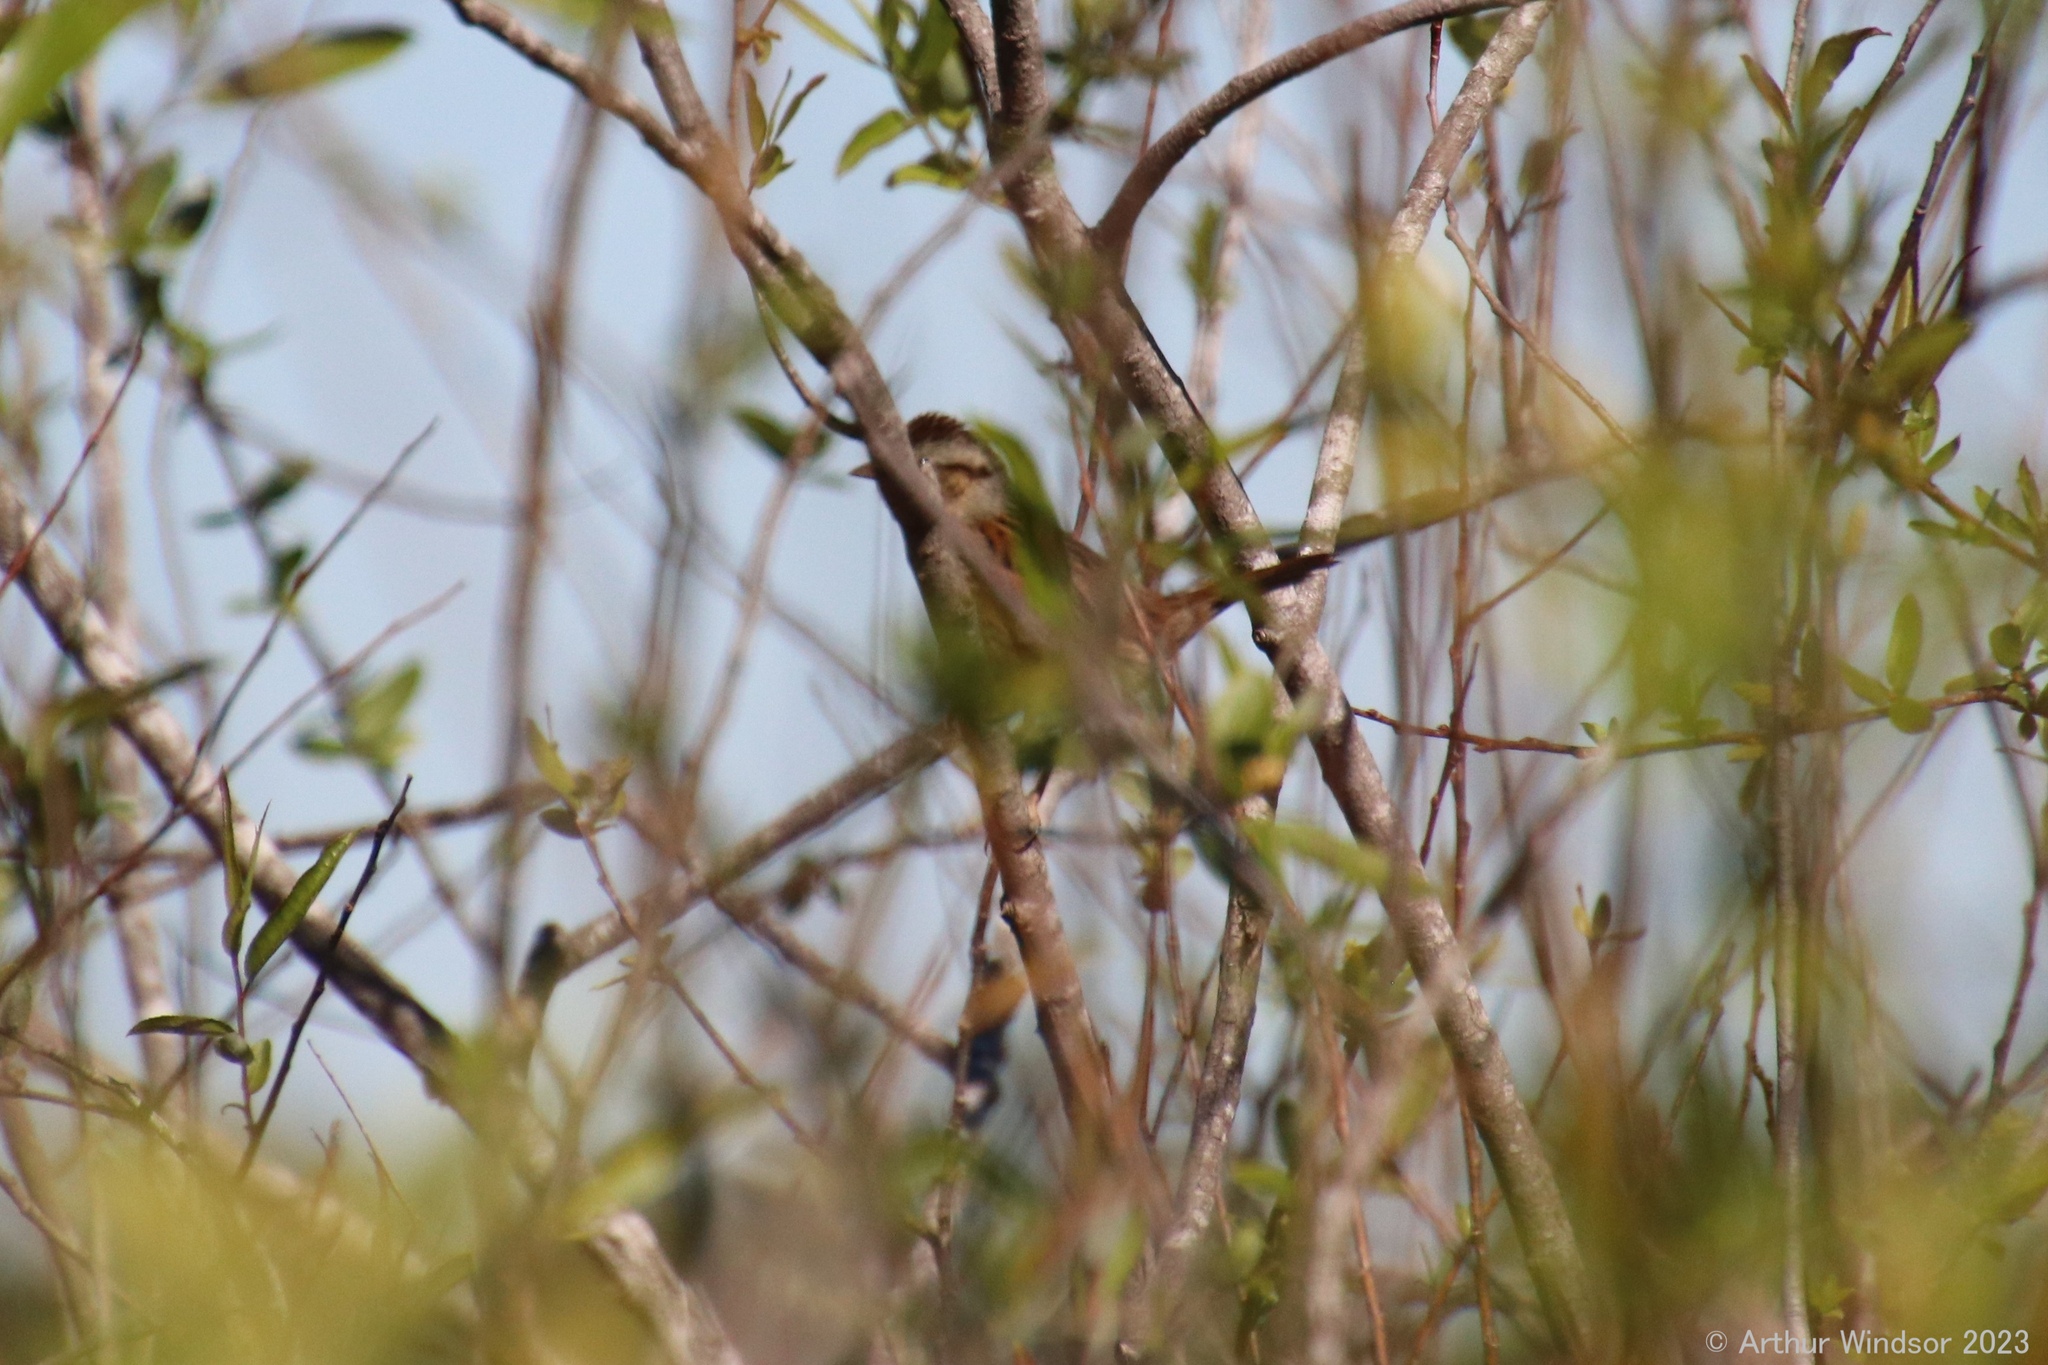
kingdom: Animalia
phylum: Chordata
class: Aves
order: Passeriformes
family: Passerellidae
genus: Melospiza
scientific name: Melospiza georgiana
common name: Swamp sparrow
